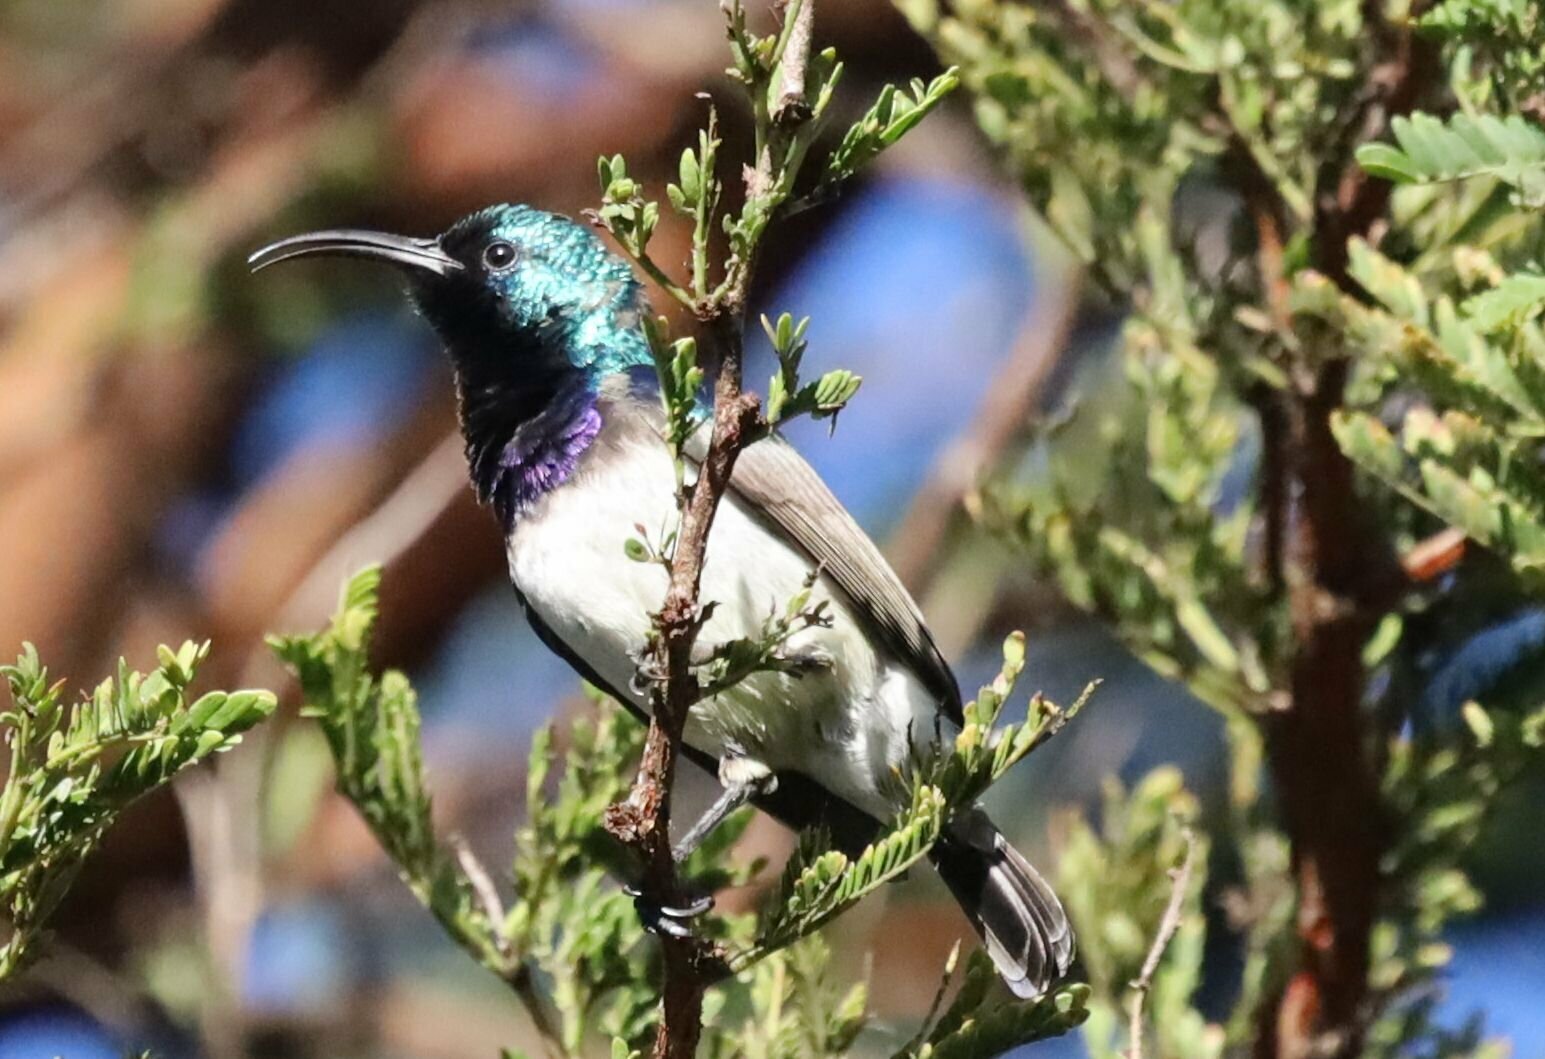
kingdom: Animalia
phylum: Chordata
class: Aves
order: Passeriformes
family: Nectariniidae
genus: Cinnyris
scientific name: Cinnyris talatala
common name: White-bellied sunbird
